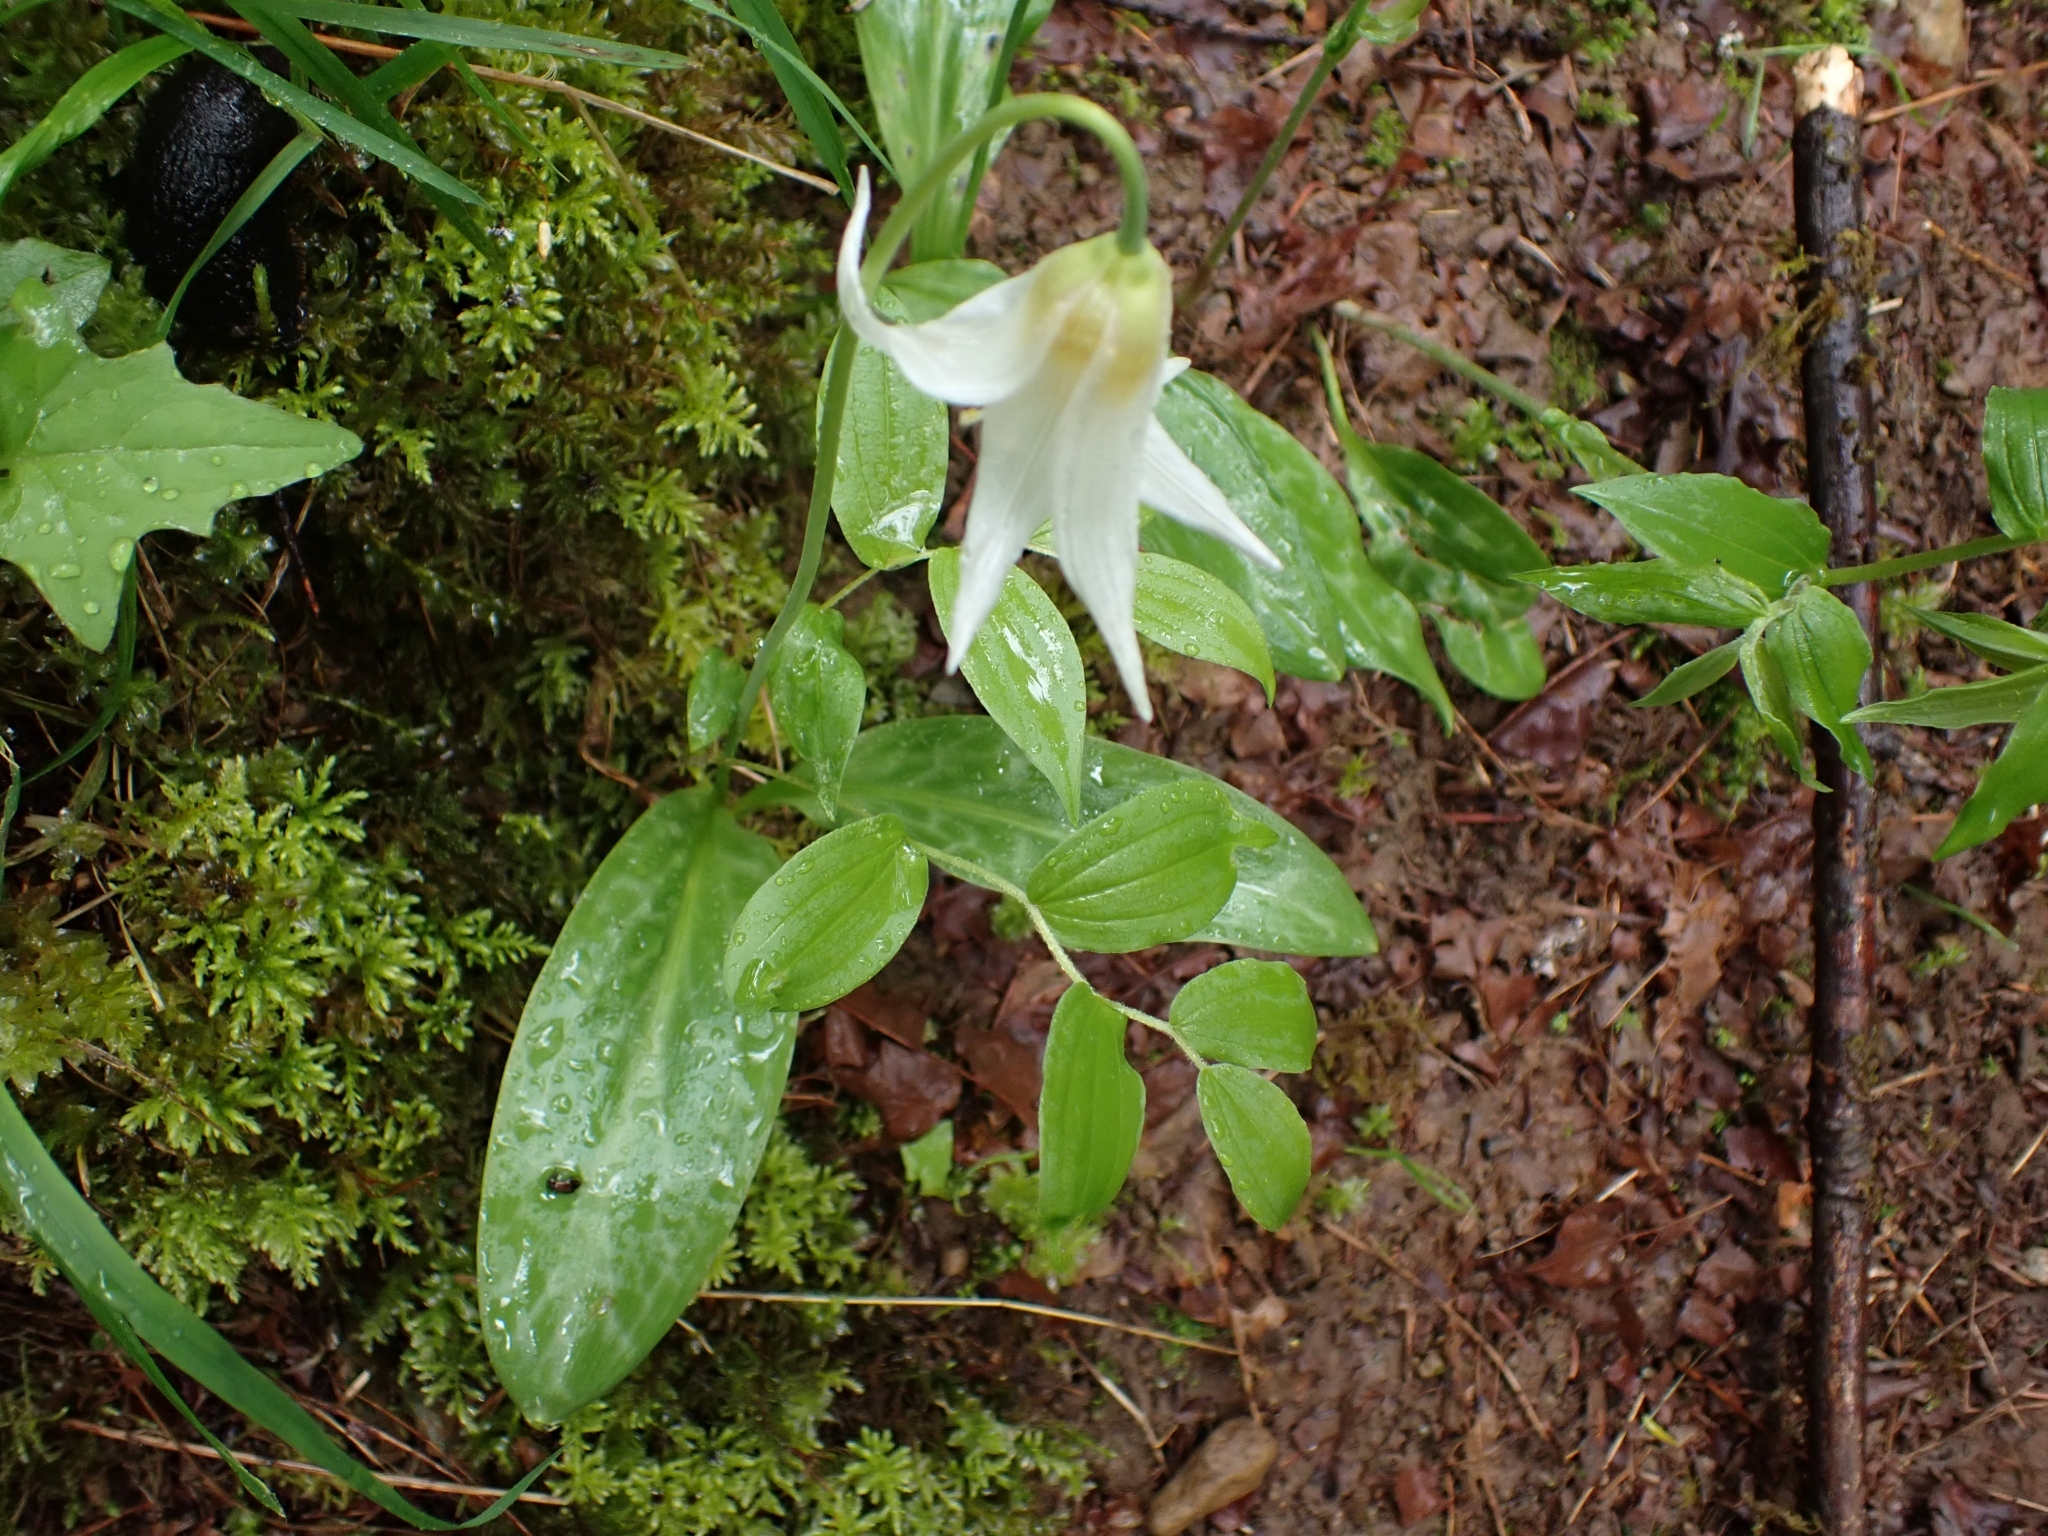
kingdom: Plantae
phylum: Tracheophyta
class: Liliopsida
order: Liliales
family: Liliaceae
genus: Erythronium
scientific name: Erythronium oregonum
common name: Giant adder's-tongue
